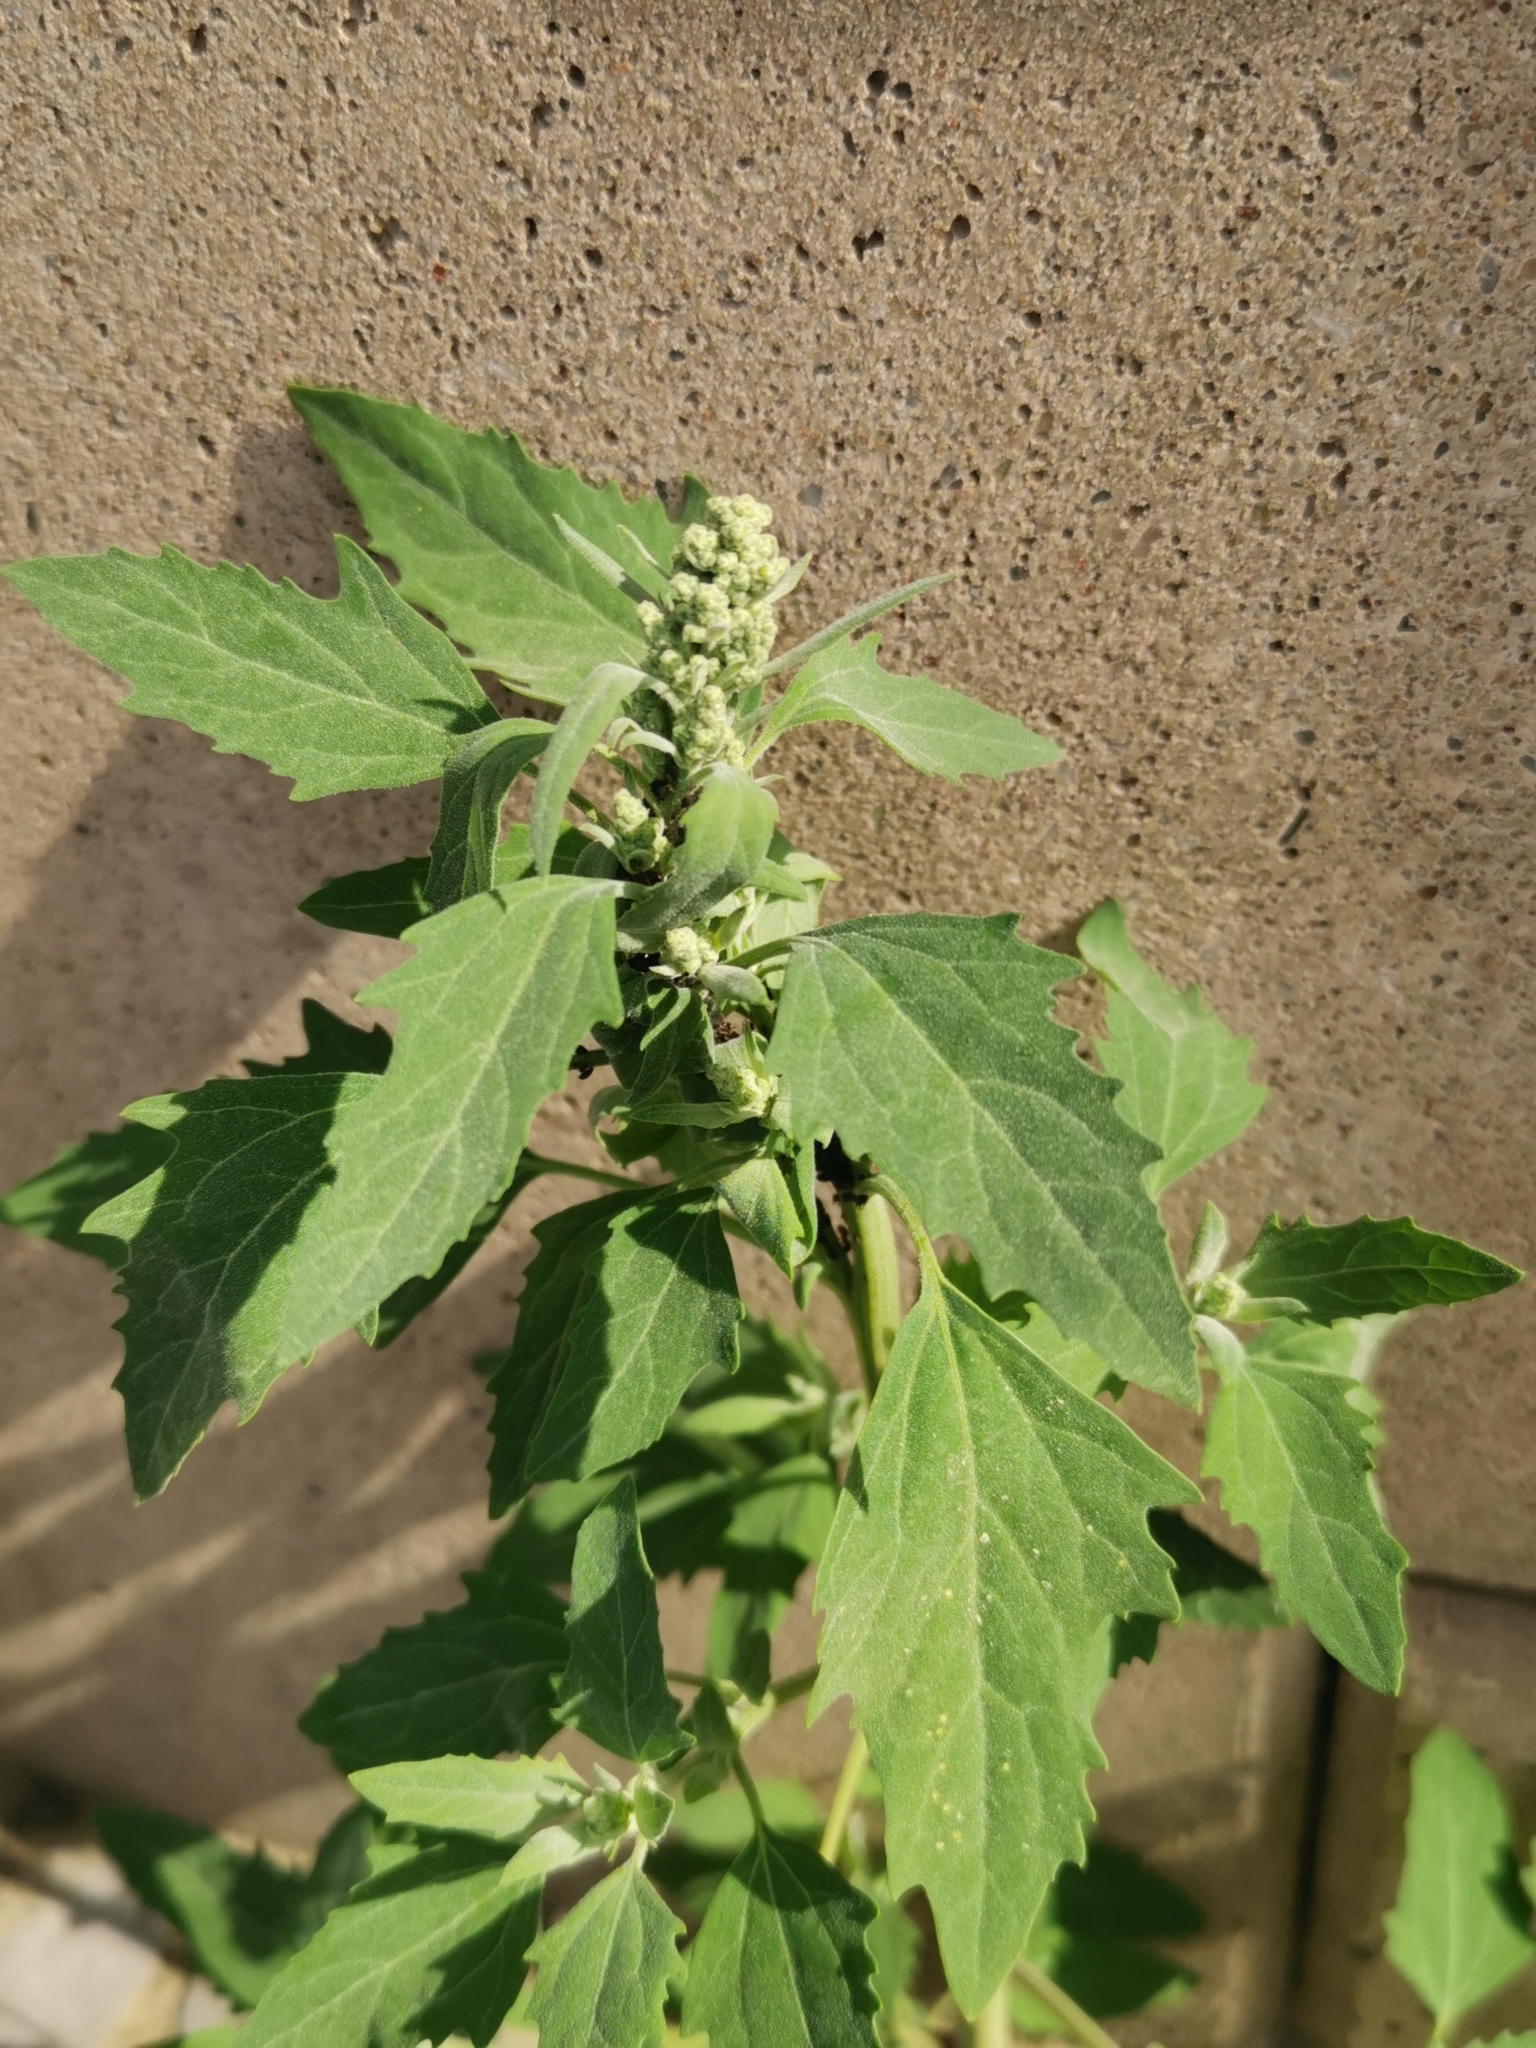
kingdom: Plantae
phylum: Tracheophyta
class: Magnoliopsida
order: Caryophyllales
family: Amaranthaceae
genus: Chenopodium
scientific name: Chenopodium album
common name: Fat-hen
